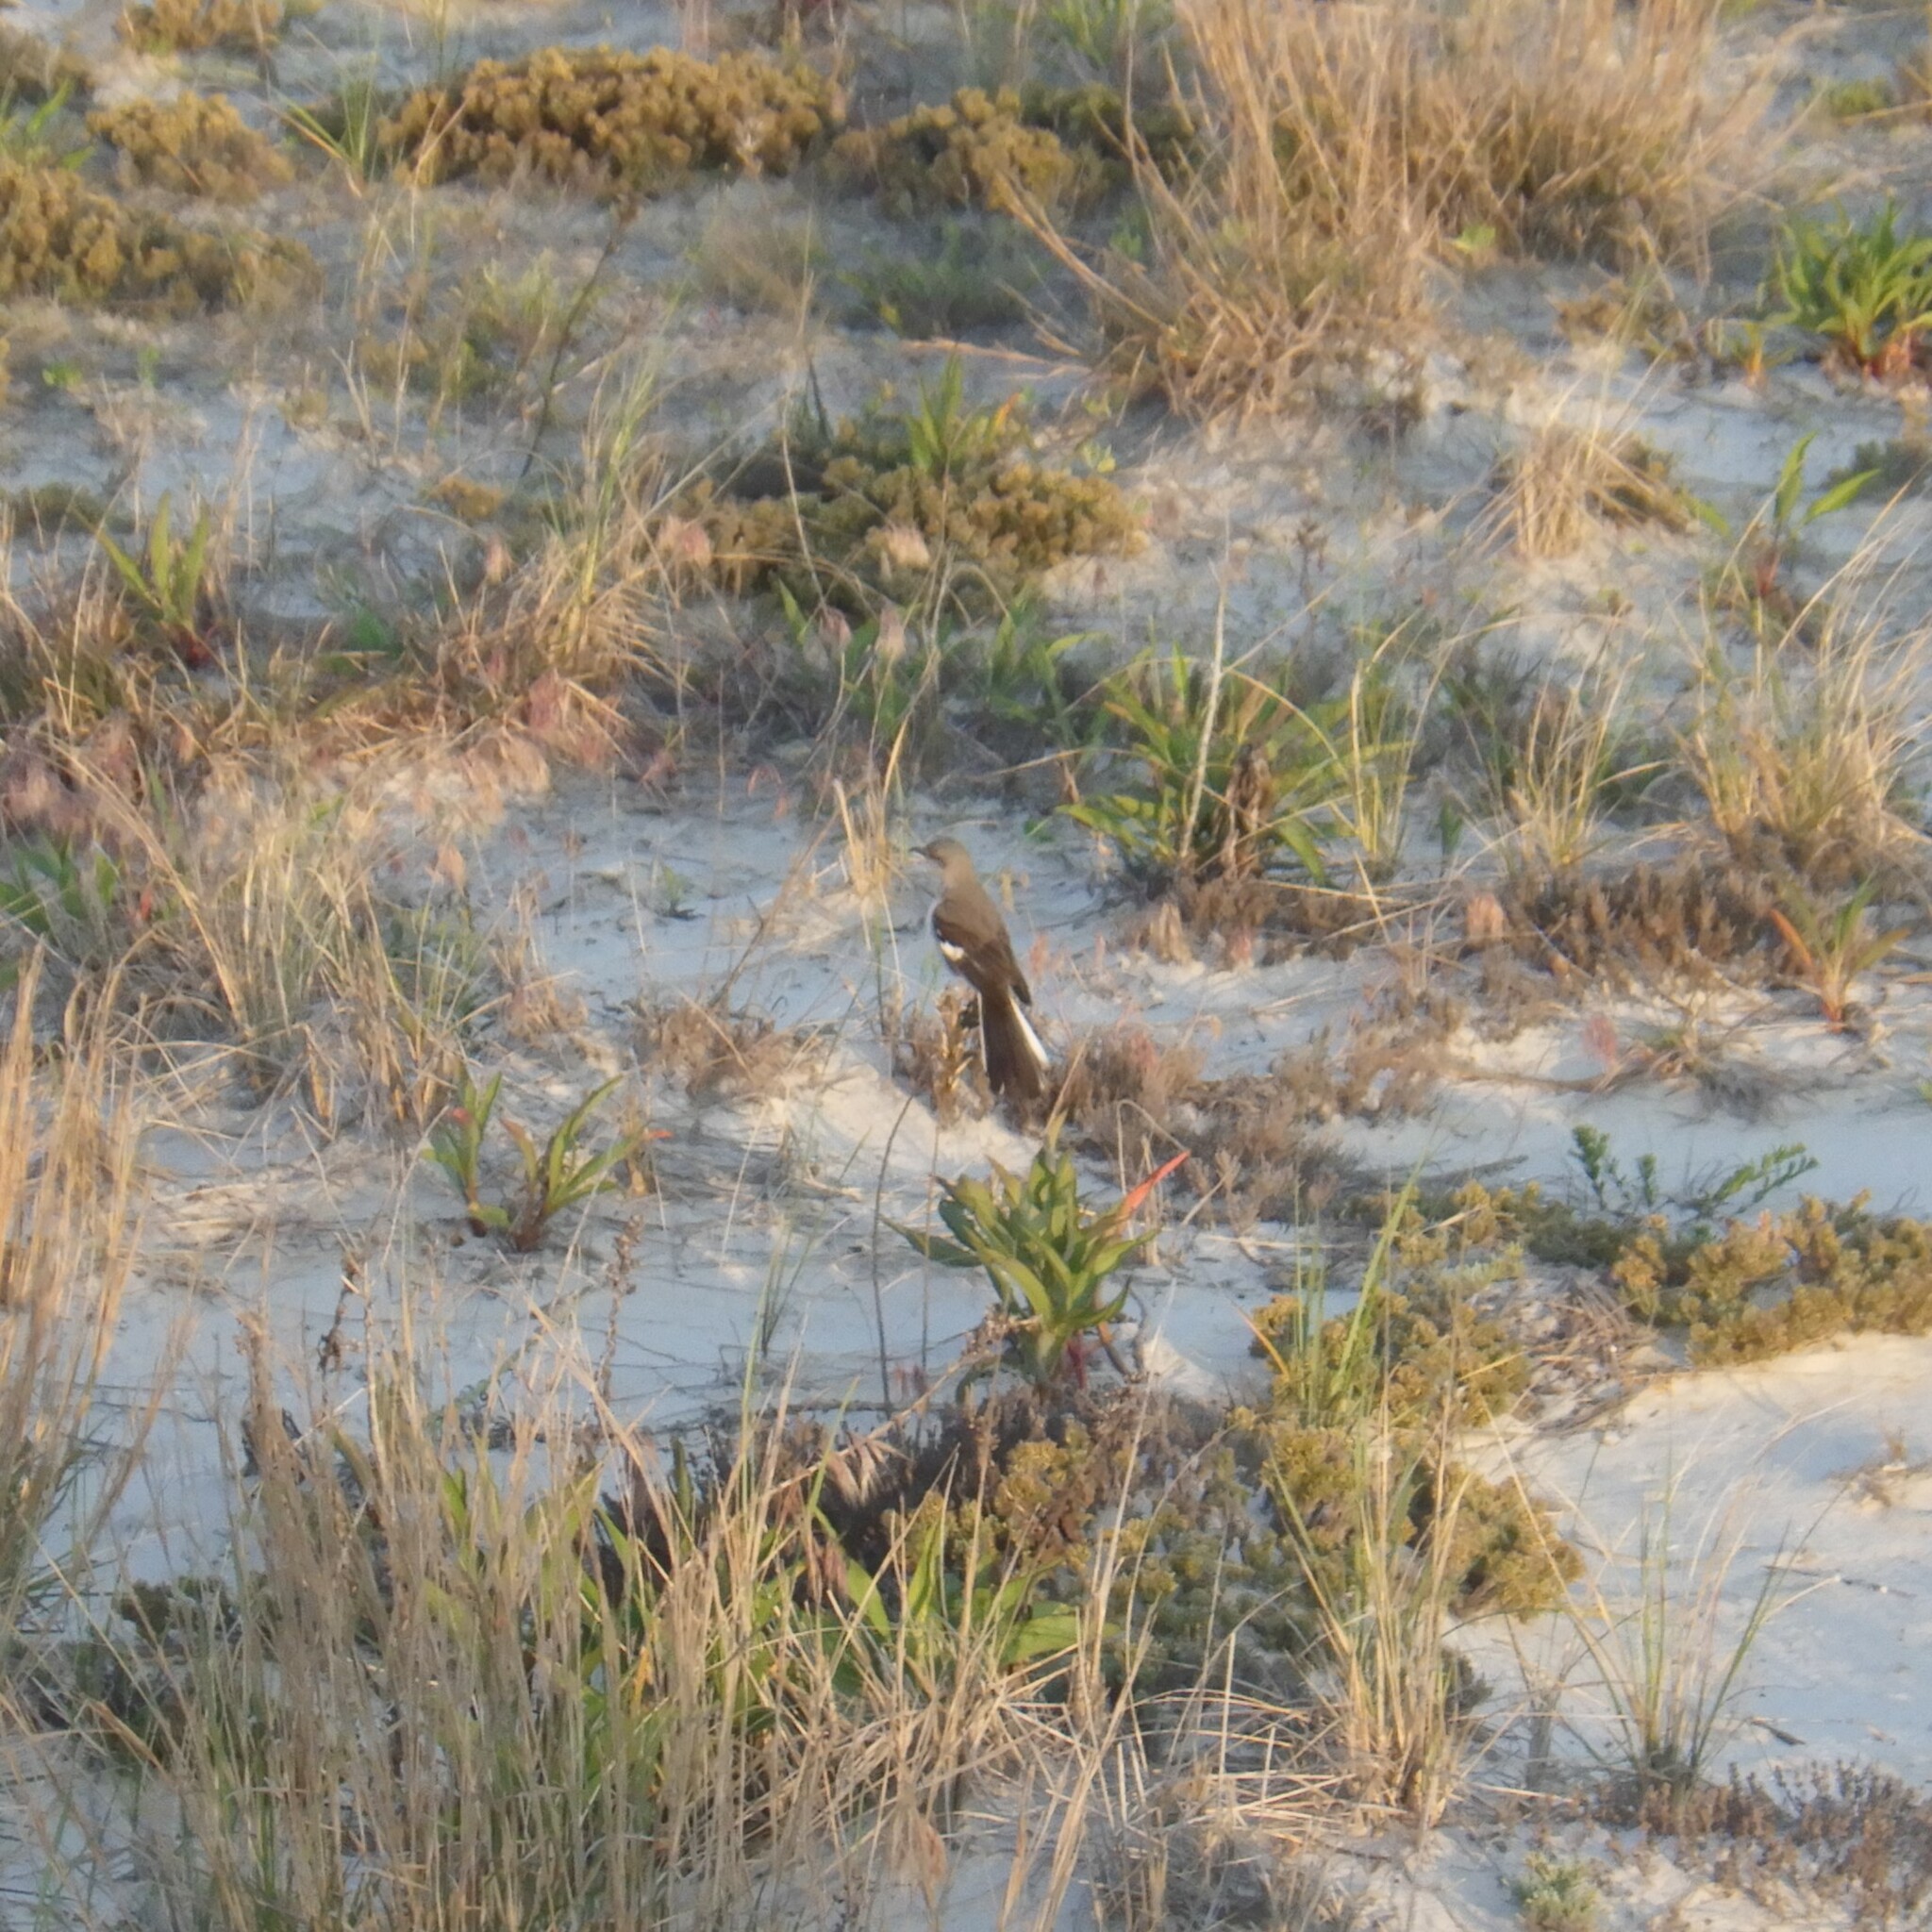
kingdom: Animalia
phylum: Chordata
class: Aves
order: Passeriformes
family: Mimidae
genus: Mimus
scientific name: Mimus polyglottos
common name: Northern mockingbird
